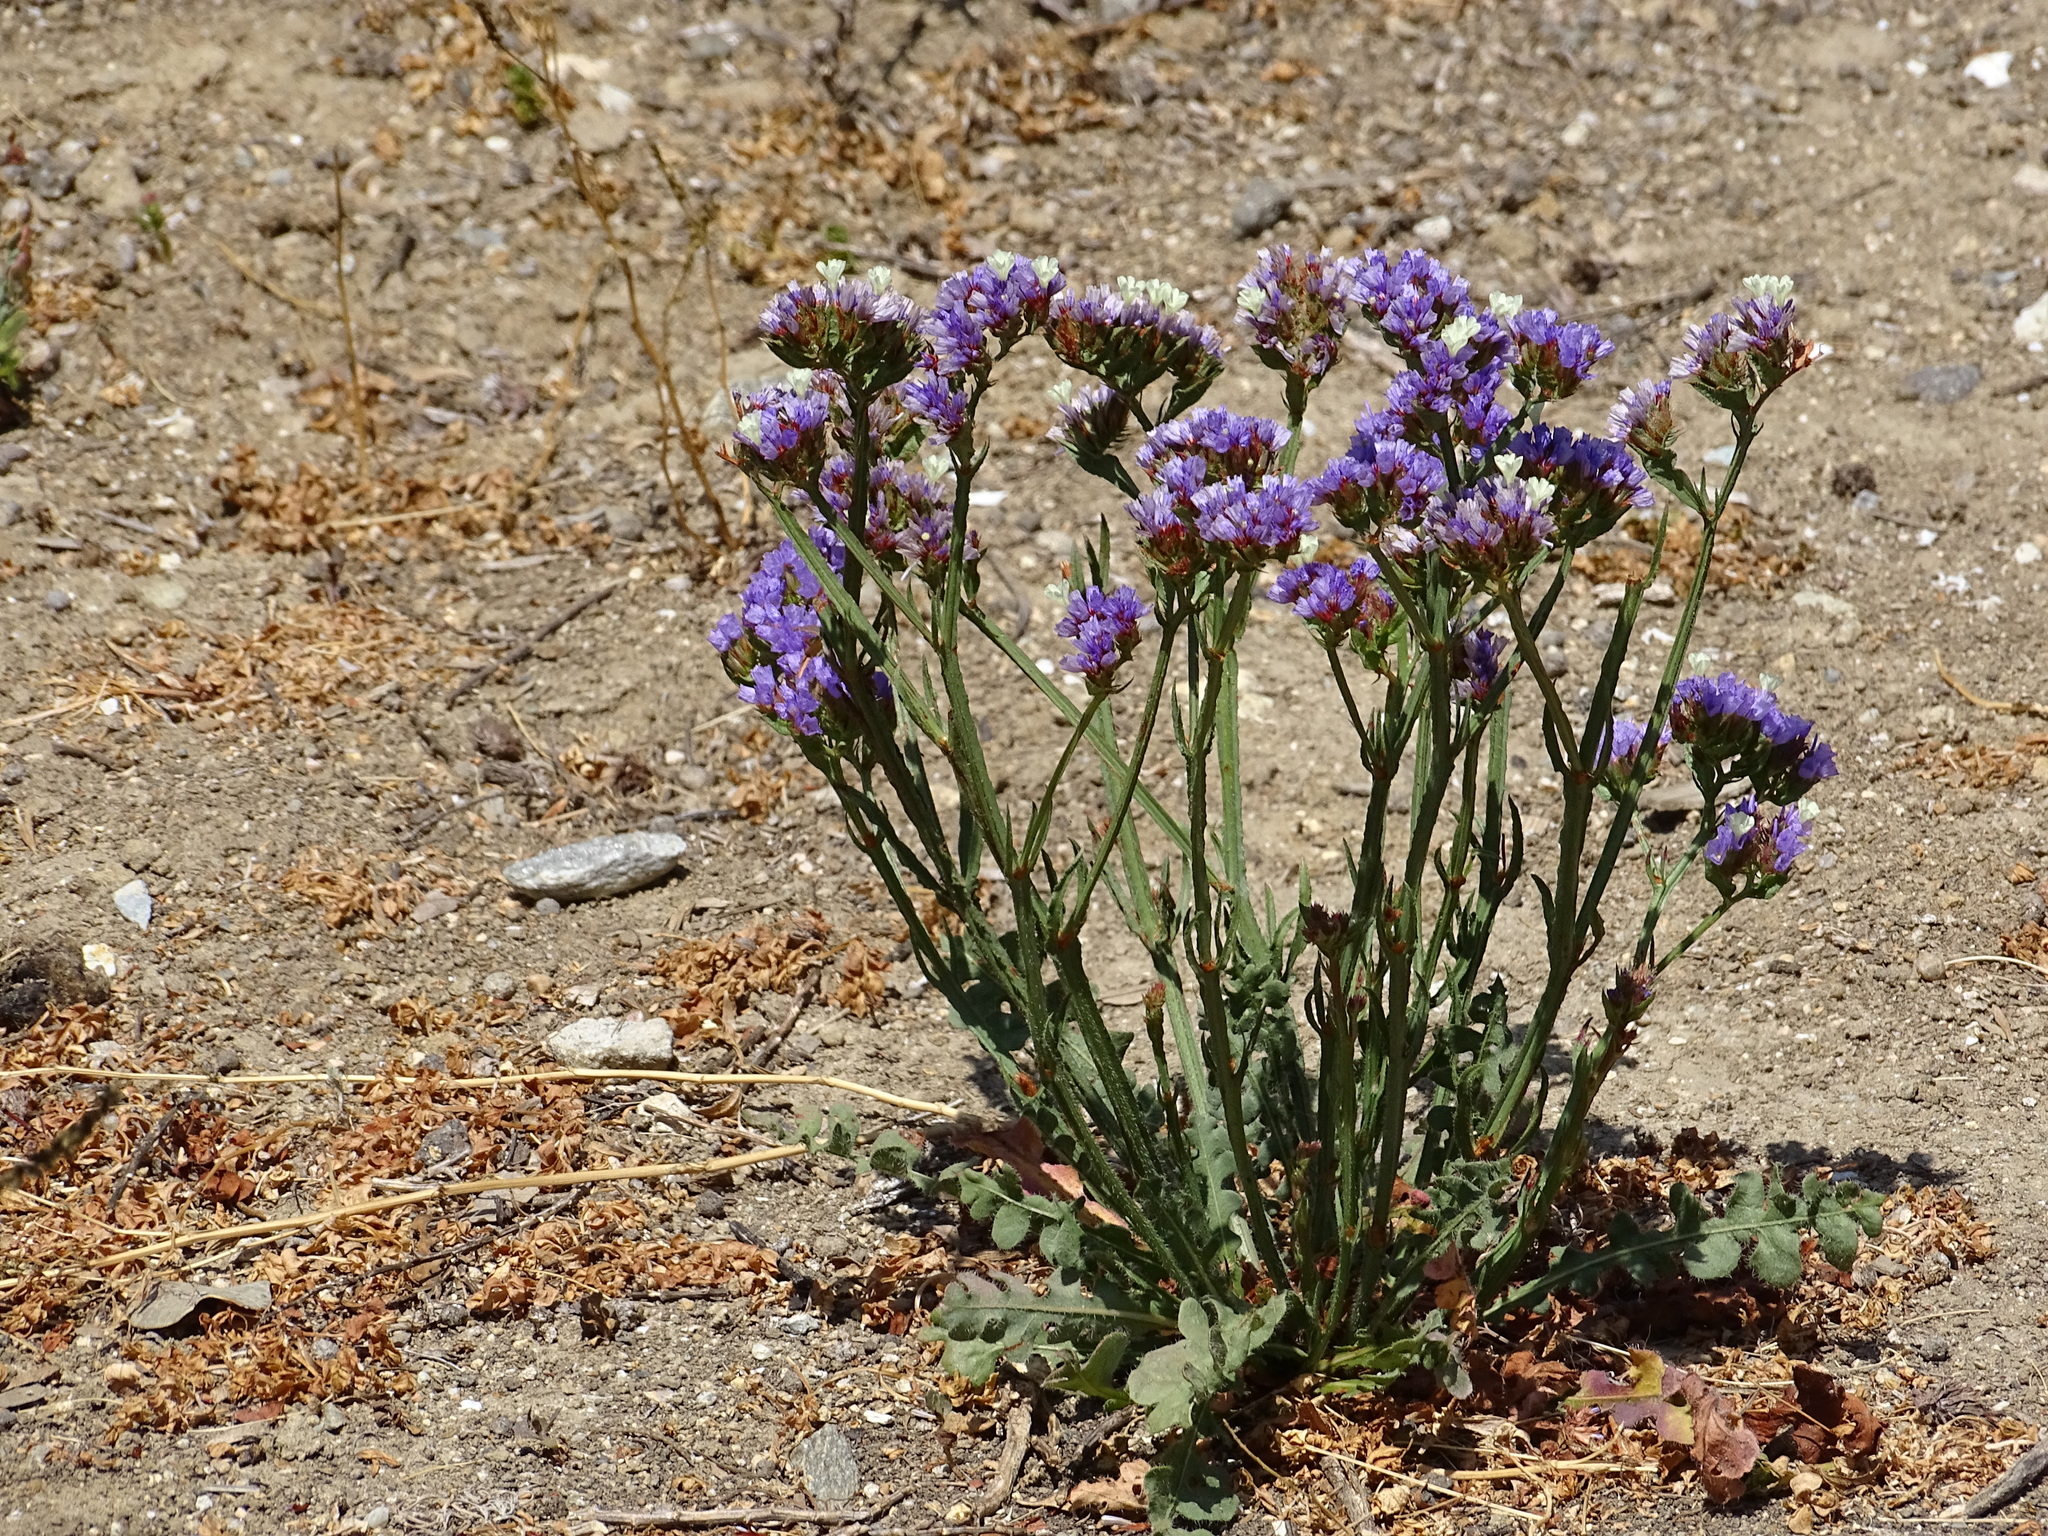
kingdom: Plantae
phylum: Tracheophyta
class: Magnoliopsida
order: Caryophyllales
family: Plumbaginaceae
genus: Limonium
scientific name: Limonium sinuatum
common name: Statice
